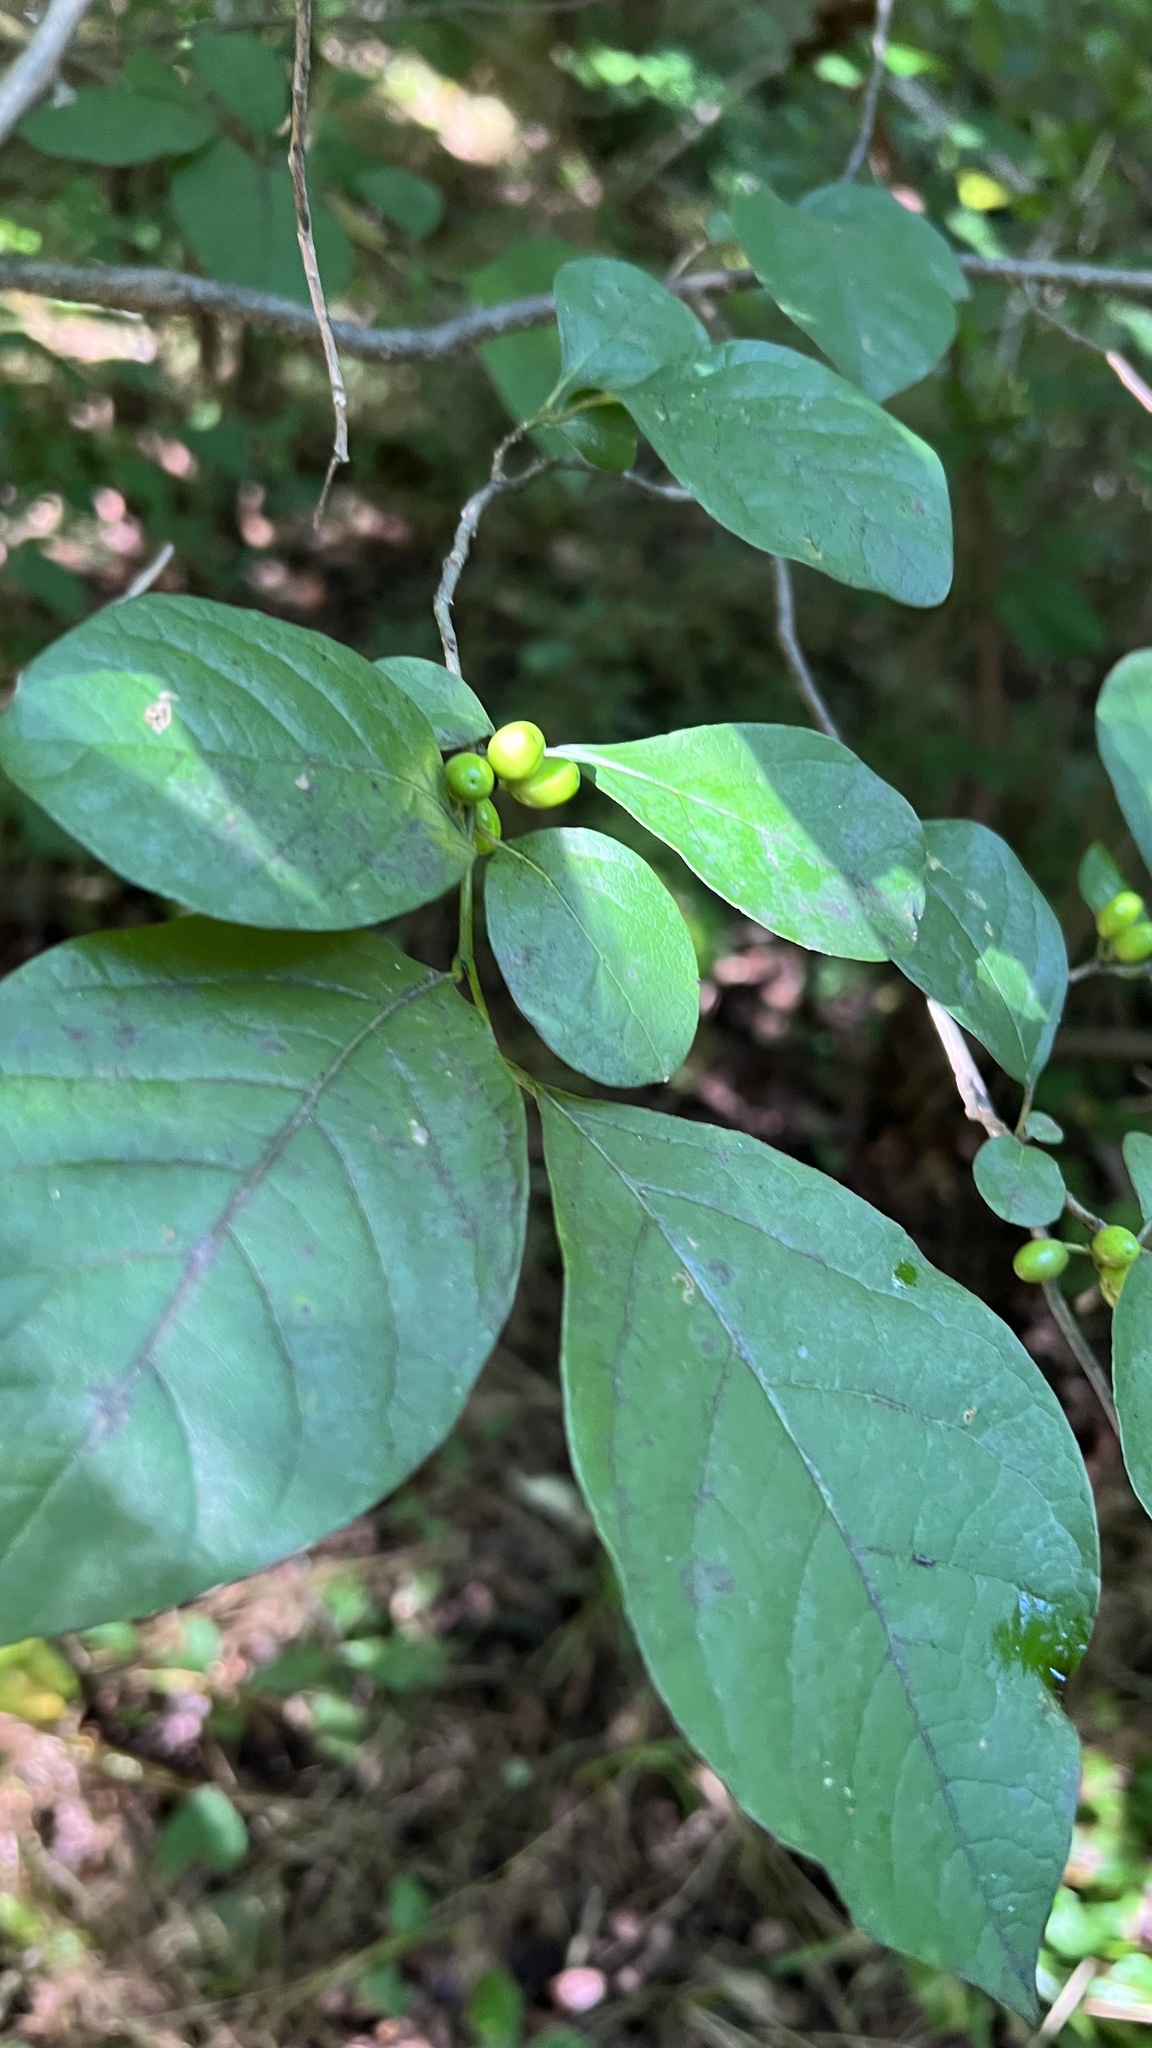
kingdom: Plantae
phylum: Tracheophyta
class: Magnoliopsida
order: Laurales
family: Lauraceae
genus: Lindera
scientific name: Lindera benzoin
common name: Spicebush
